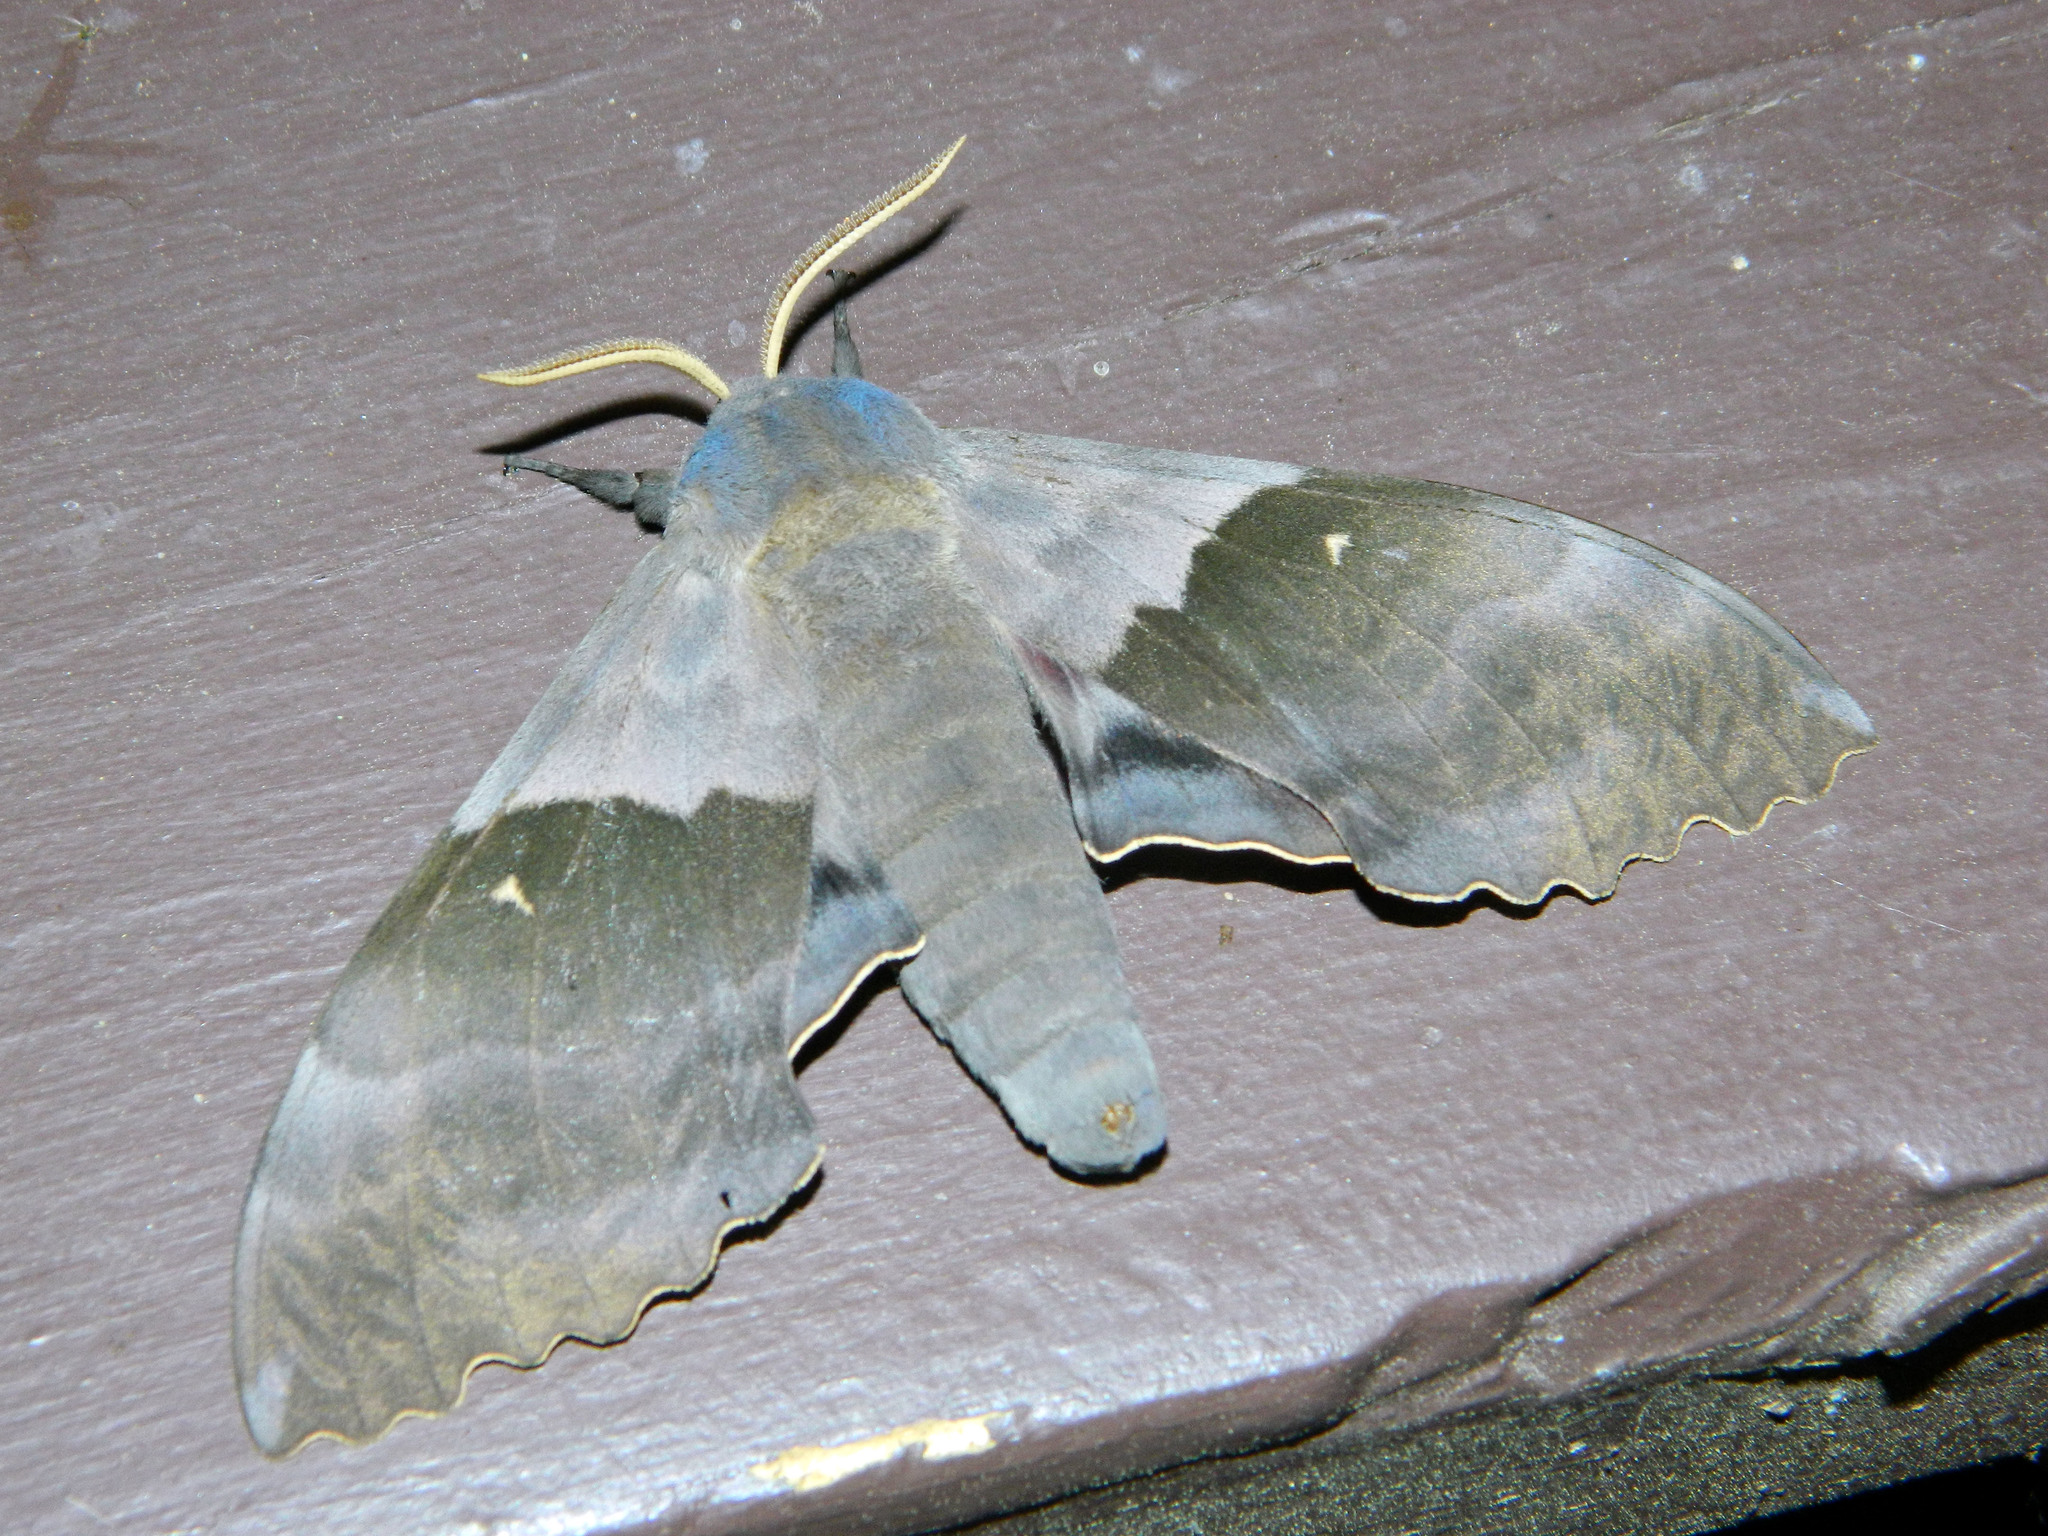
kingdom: Animalia
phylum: Arthropoda
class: Insecta
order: Lepidoptera
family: Sphingidae
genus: Pachysphinx
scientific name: Pachysphinx modesta
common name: Big poplar sphinx
